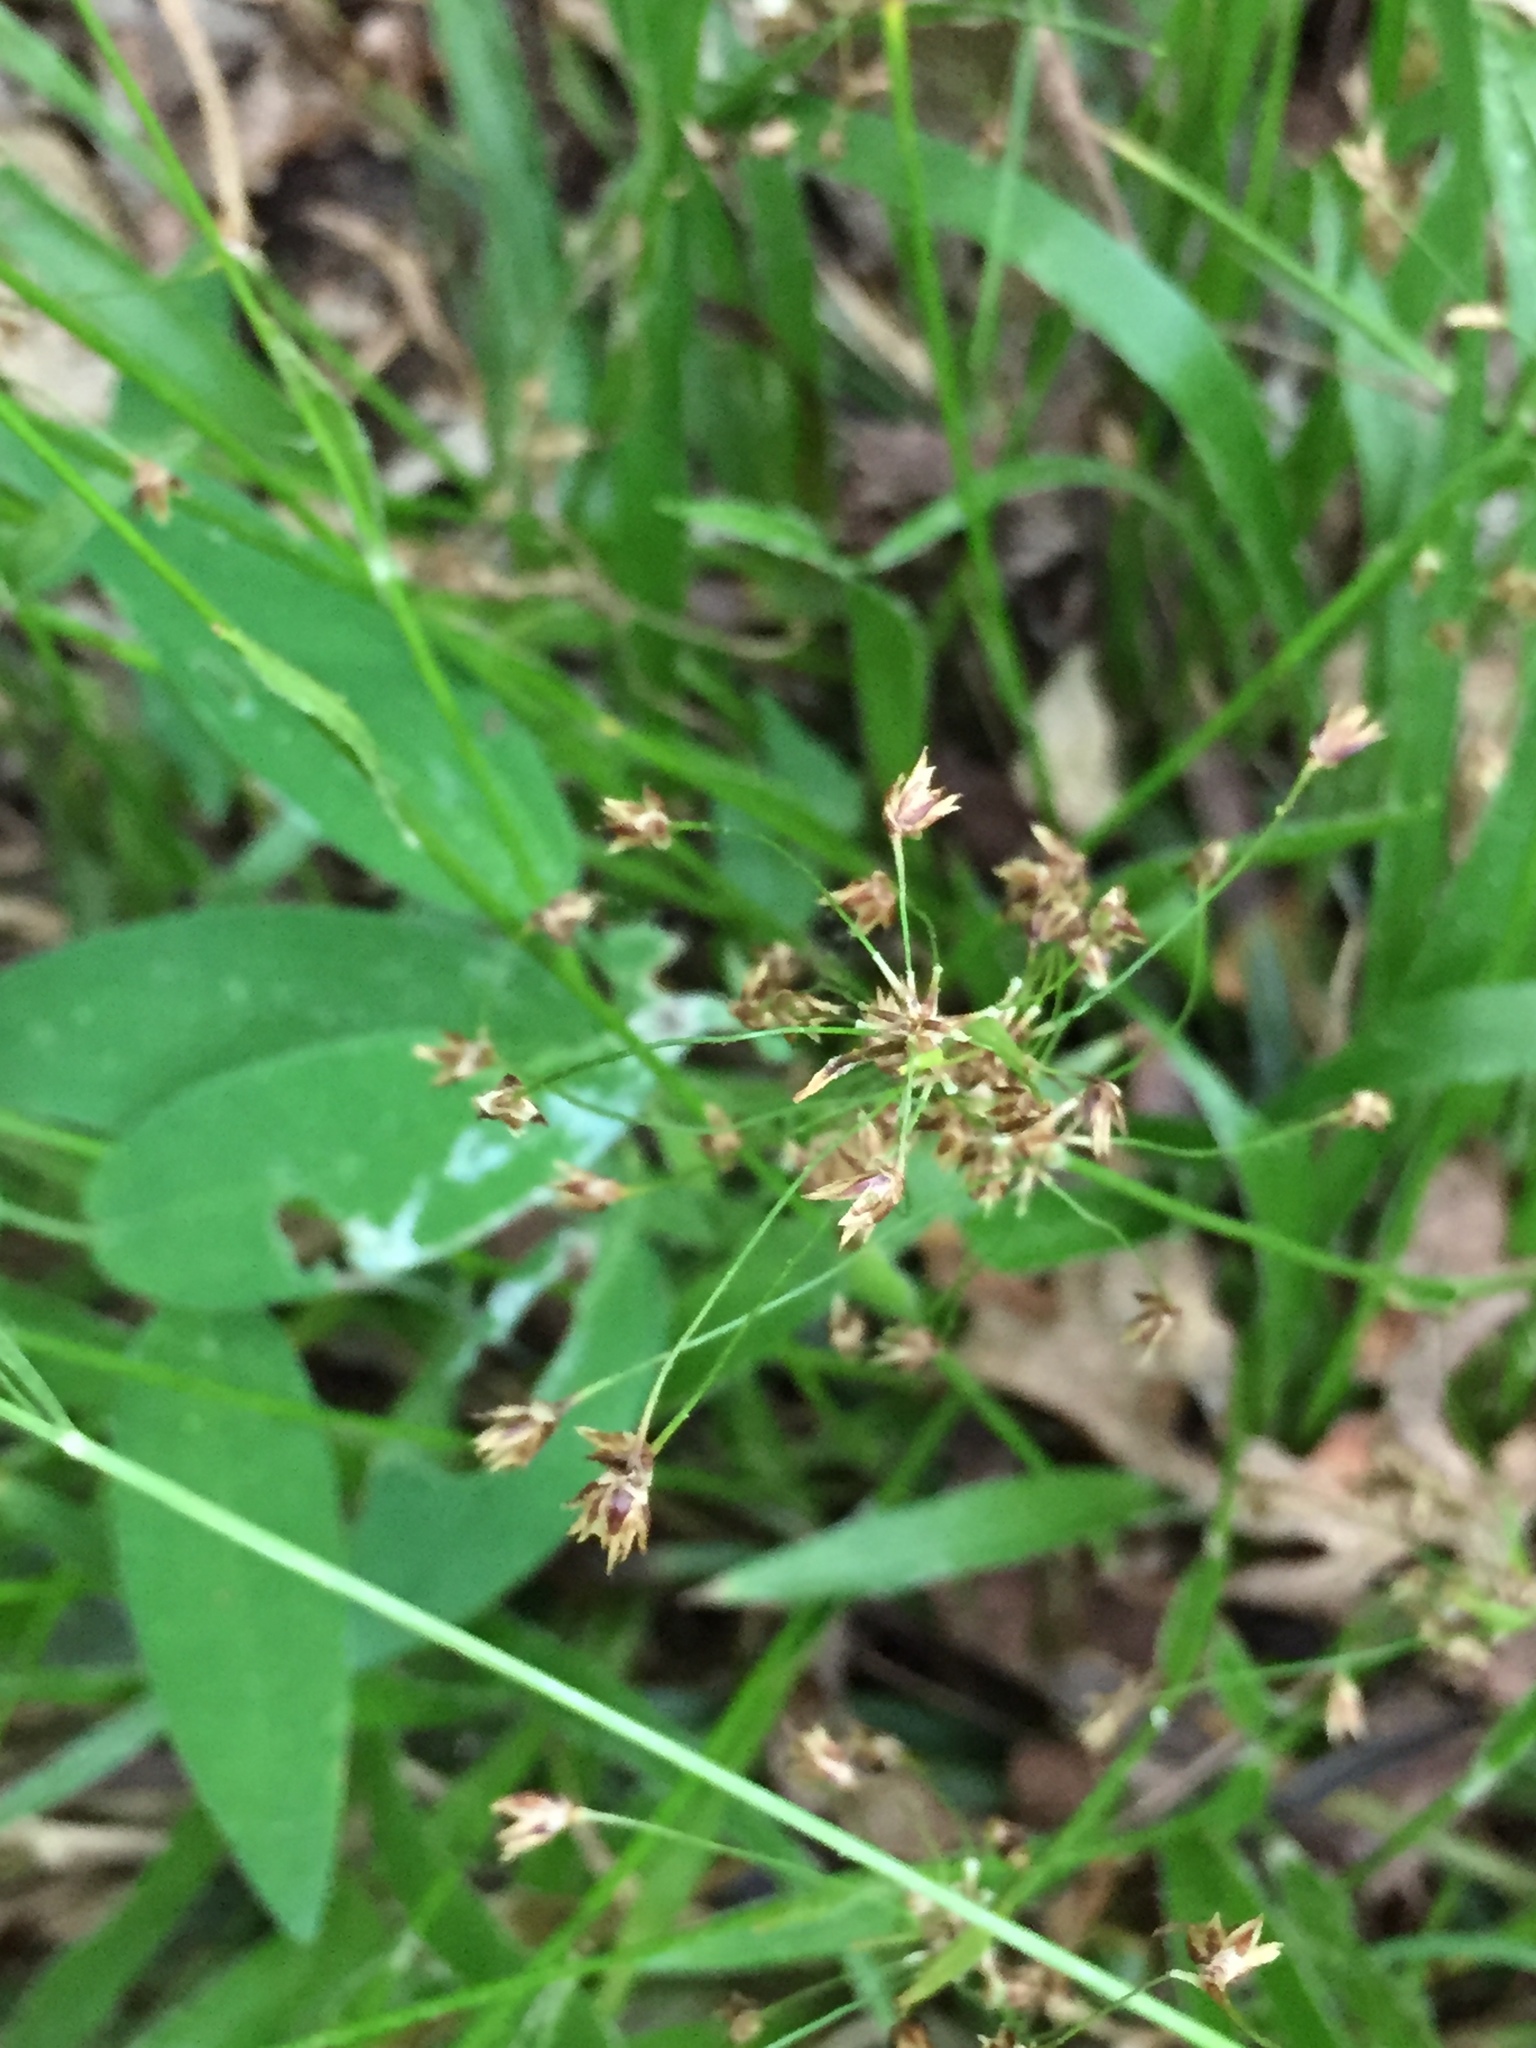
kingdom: Plantae
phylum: Tracheophyta
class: Liliopsida
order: Poales
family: Juncaceae
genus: Luzula
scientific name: Luzula acuminata
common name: Hairy woodrush
